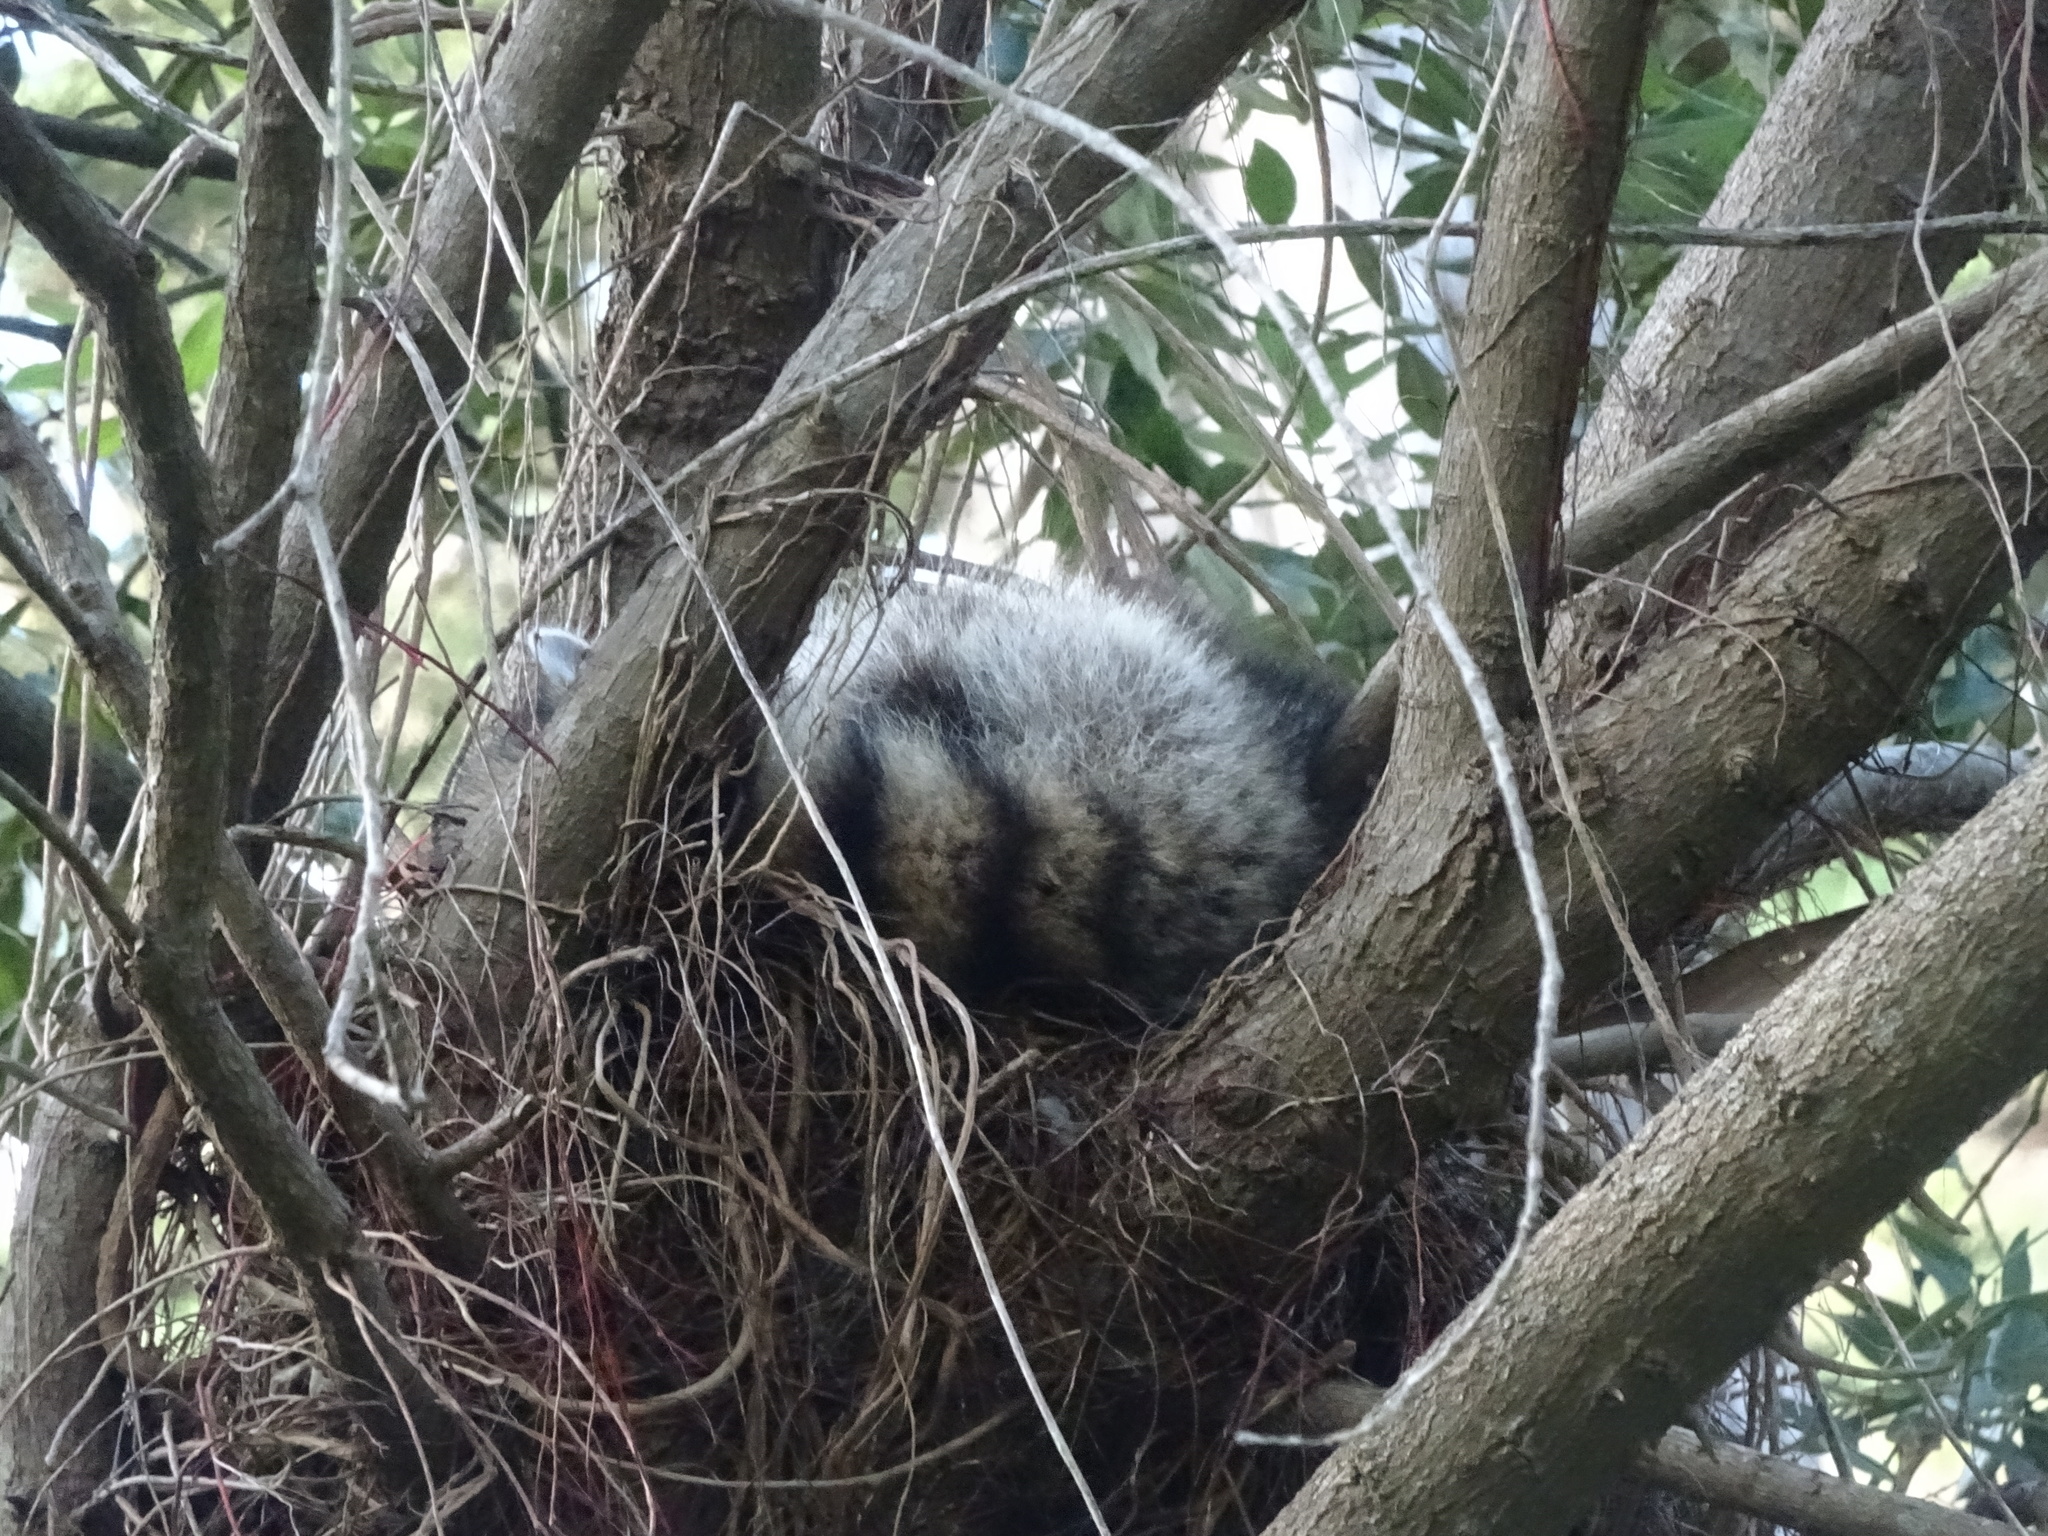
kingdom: Animalia
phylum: Chordata
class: Mammalia
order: Carnivora
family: Procyonidae
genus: Procyon
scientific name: Procyon lotor
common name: Raccoon
